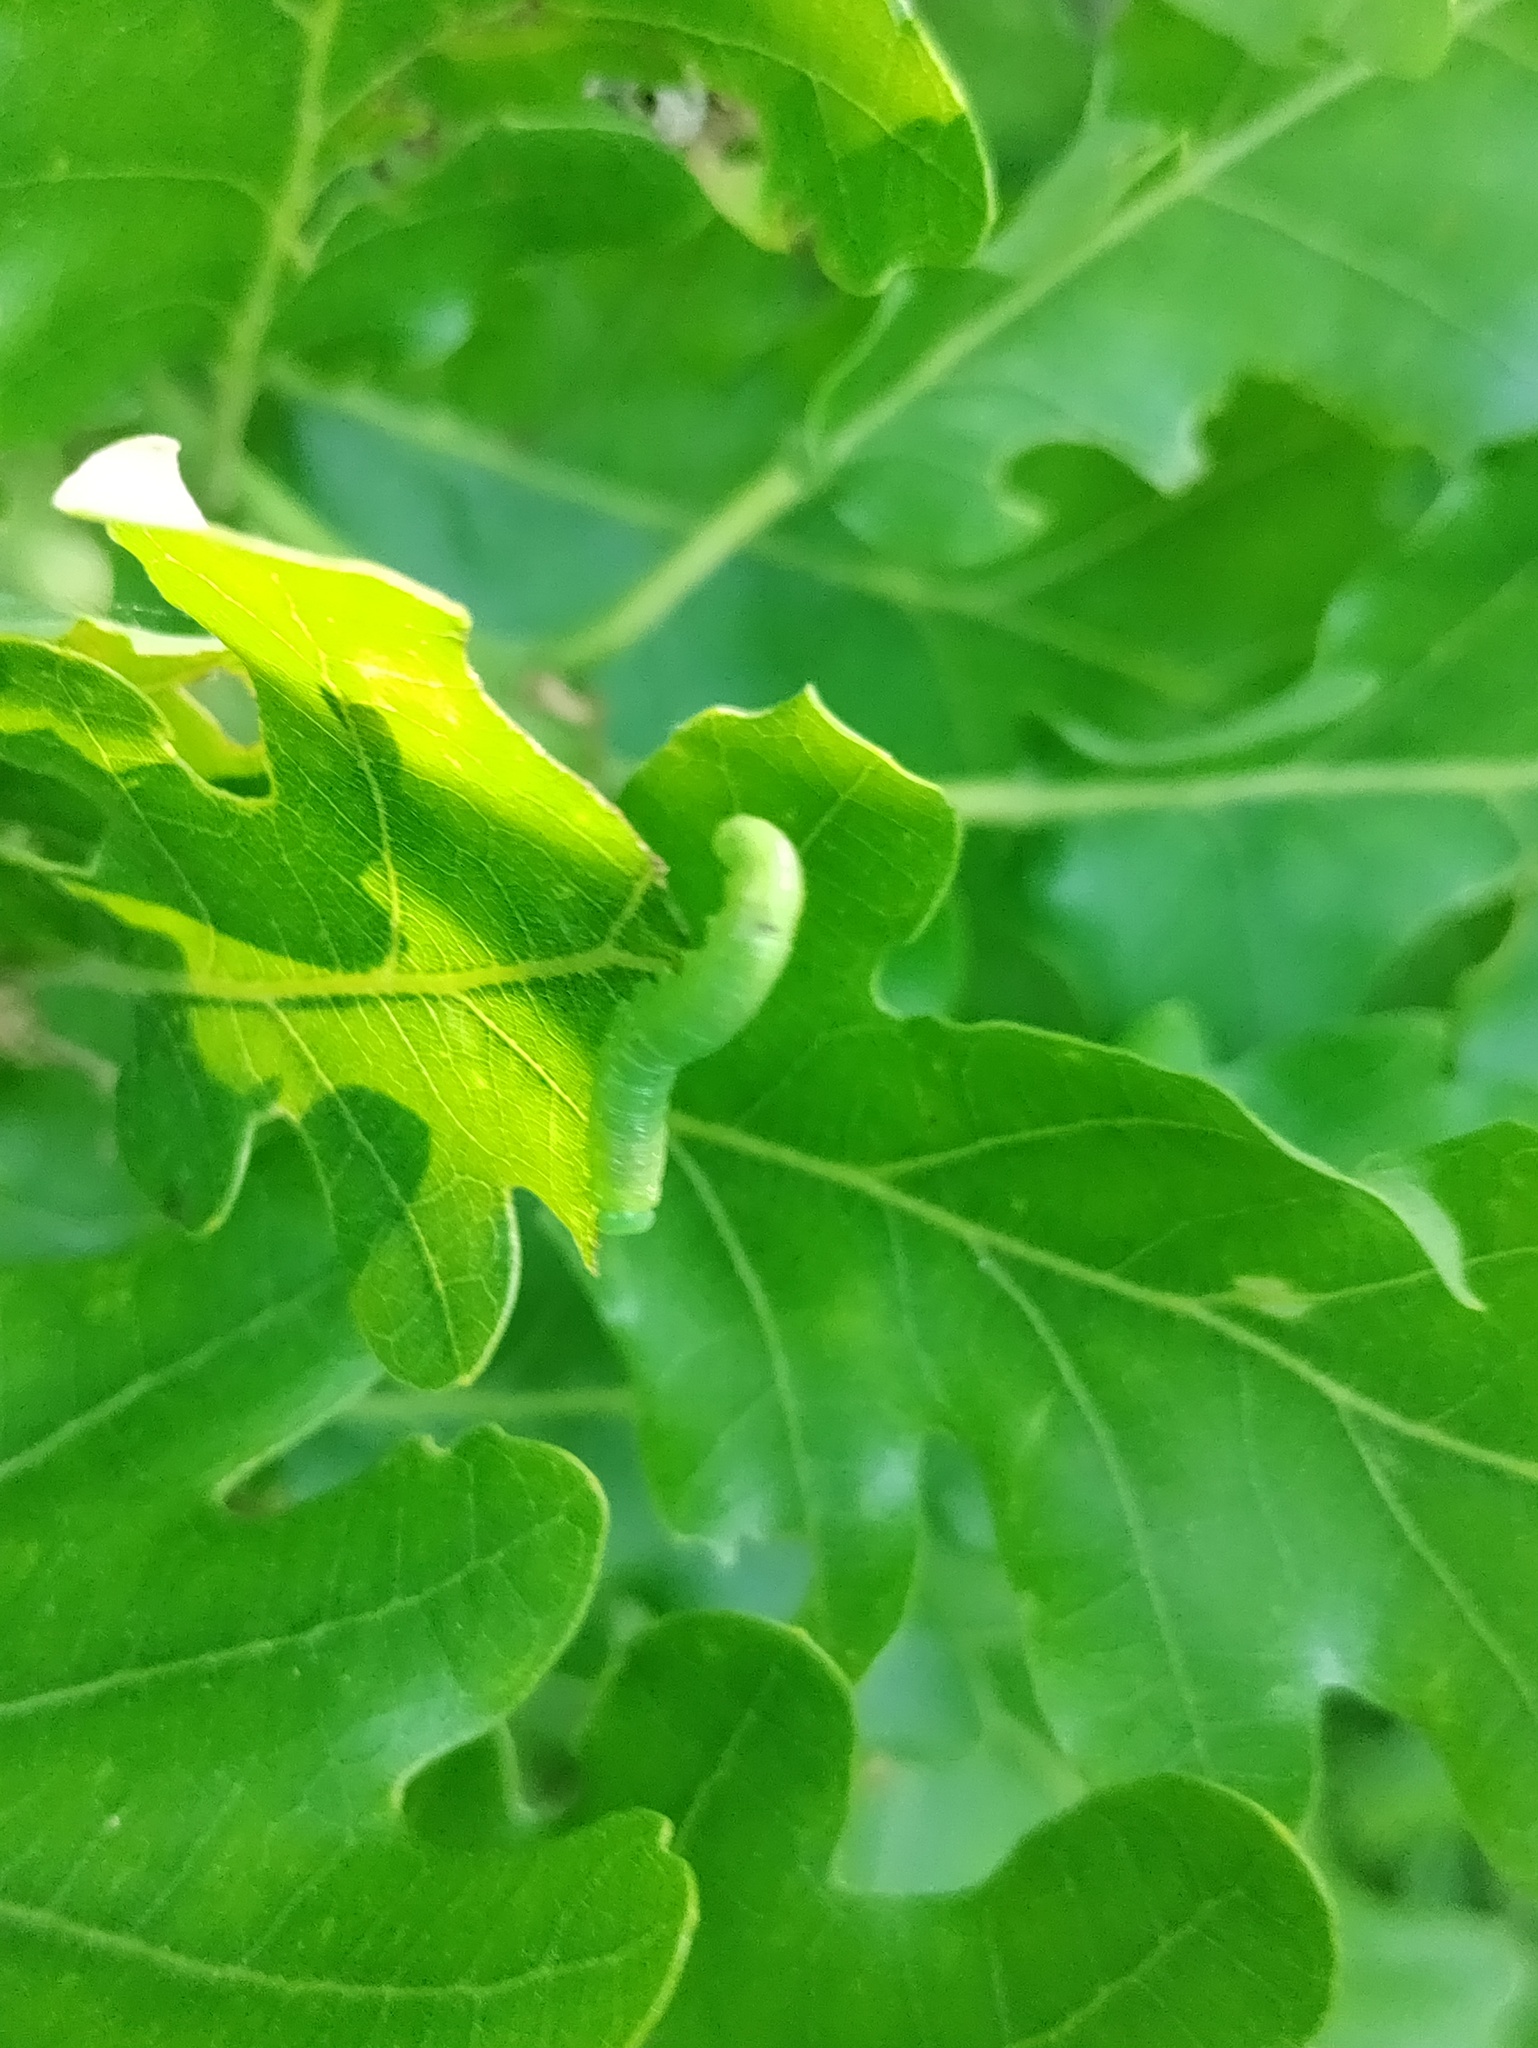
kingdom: Animalia
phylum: Arthropoda
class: Insecta
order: Hymenoptera
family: Tenthredinidae
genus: Mesoneura
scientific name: Mesoneura opaca
